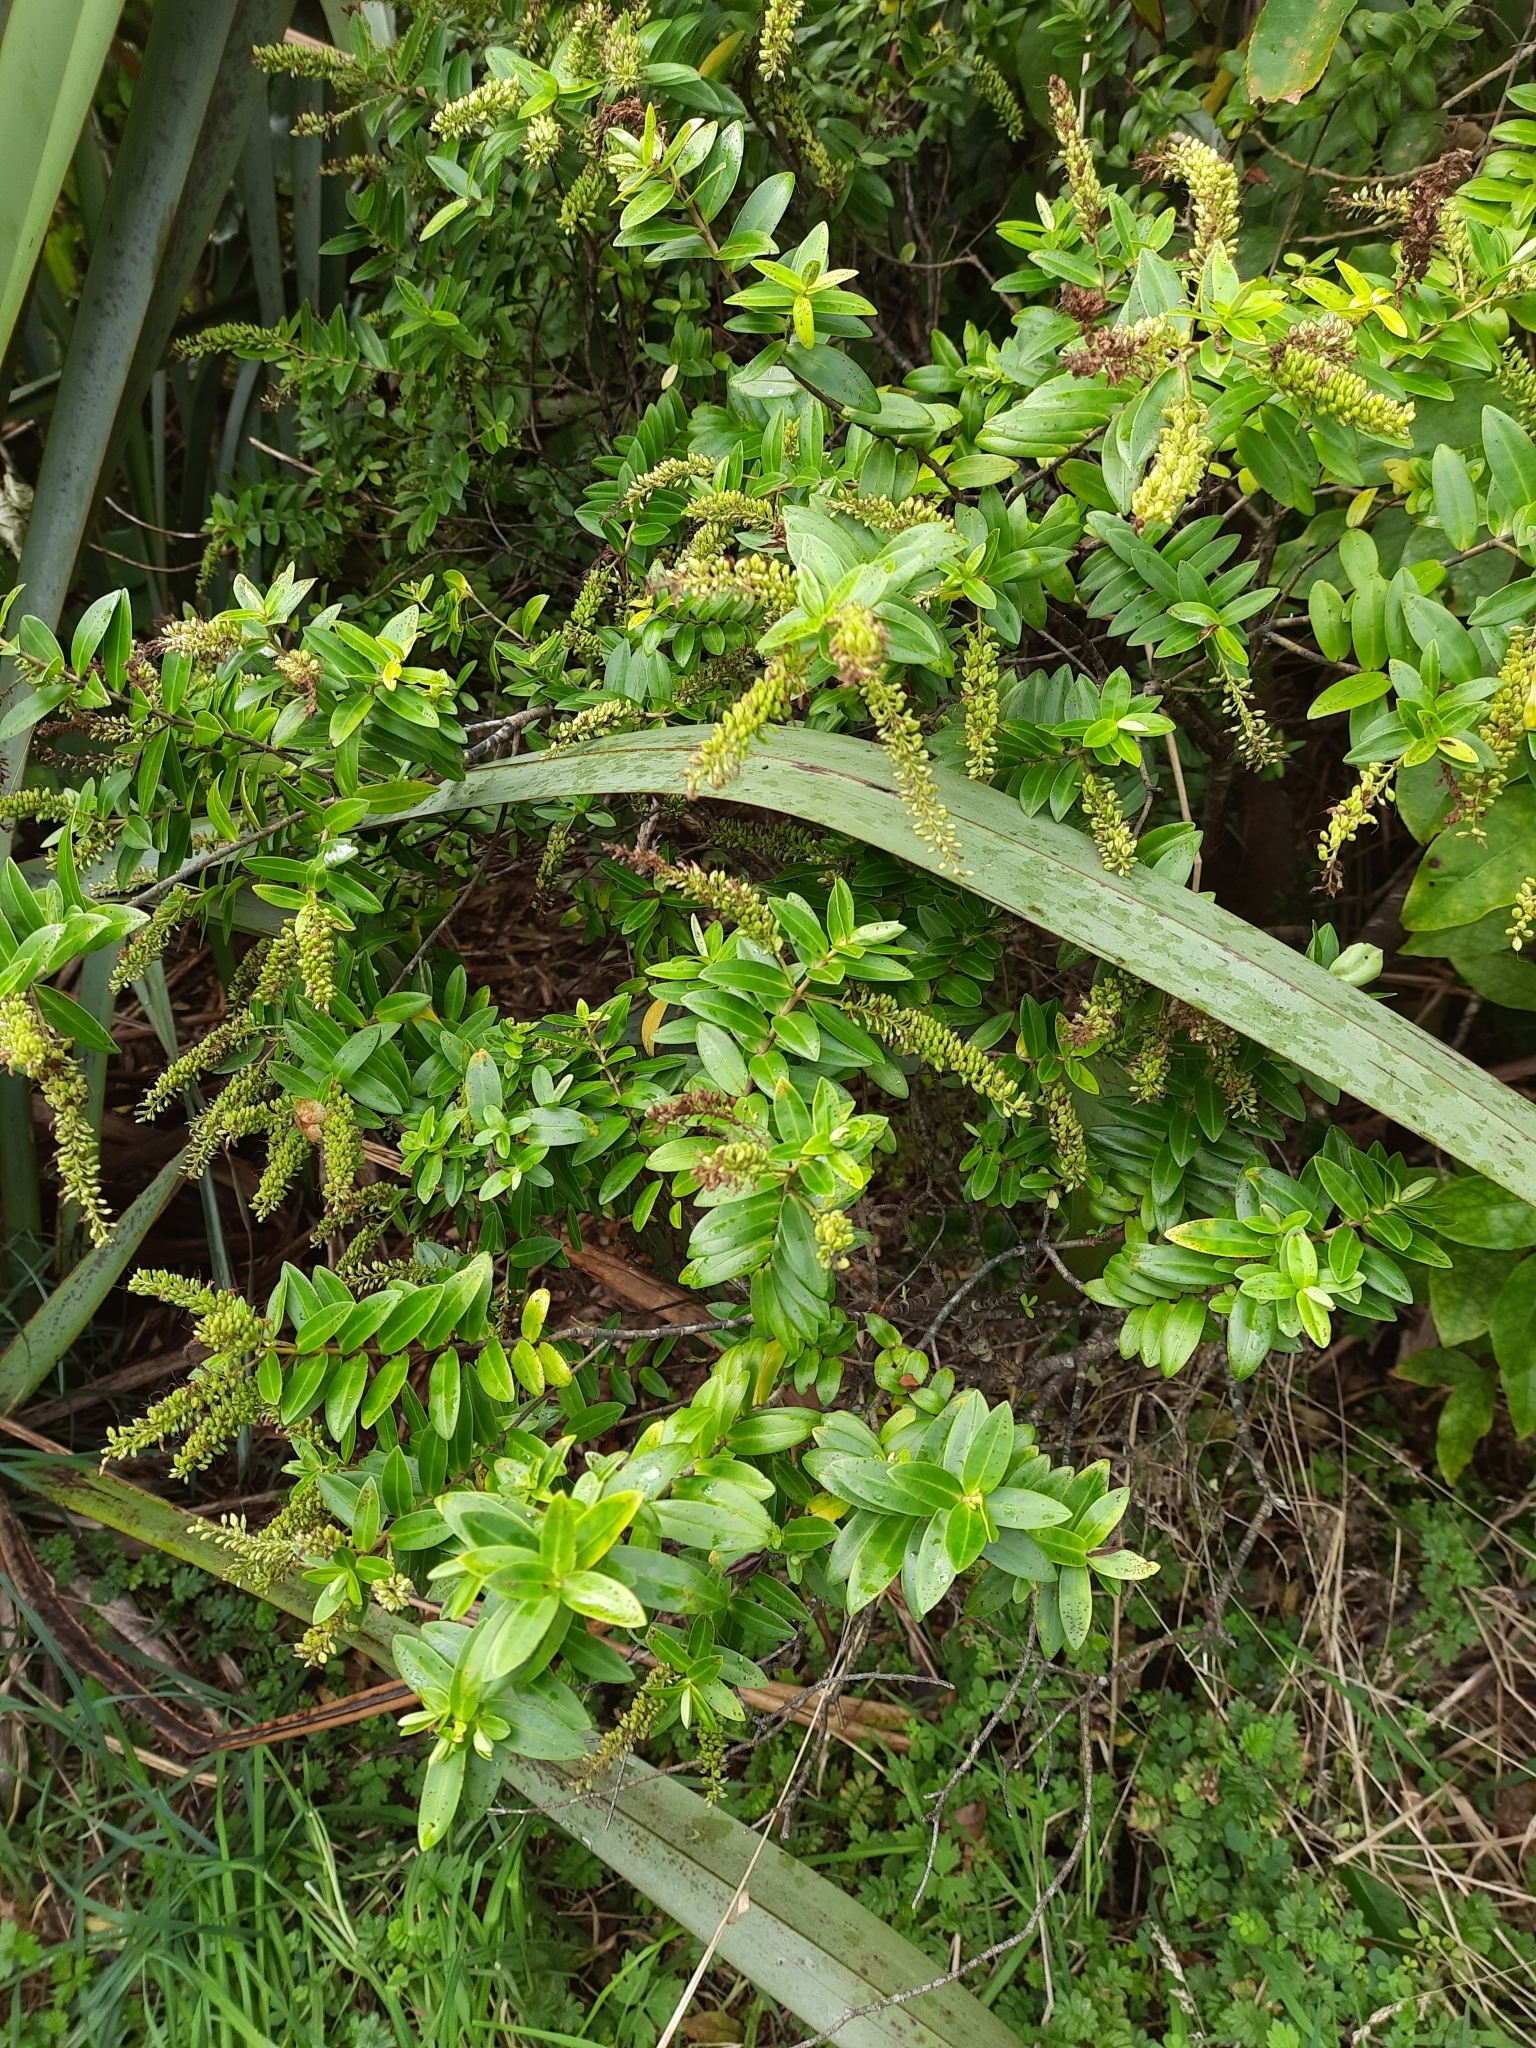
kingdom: Plantae
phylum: Tracheophyta
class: Magnoliopsida
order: Lamiales
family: Plantaginaceae
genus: Veronica
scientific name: Veronica elliptica
